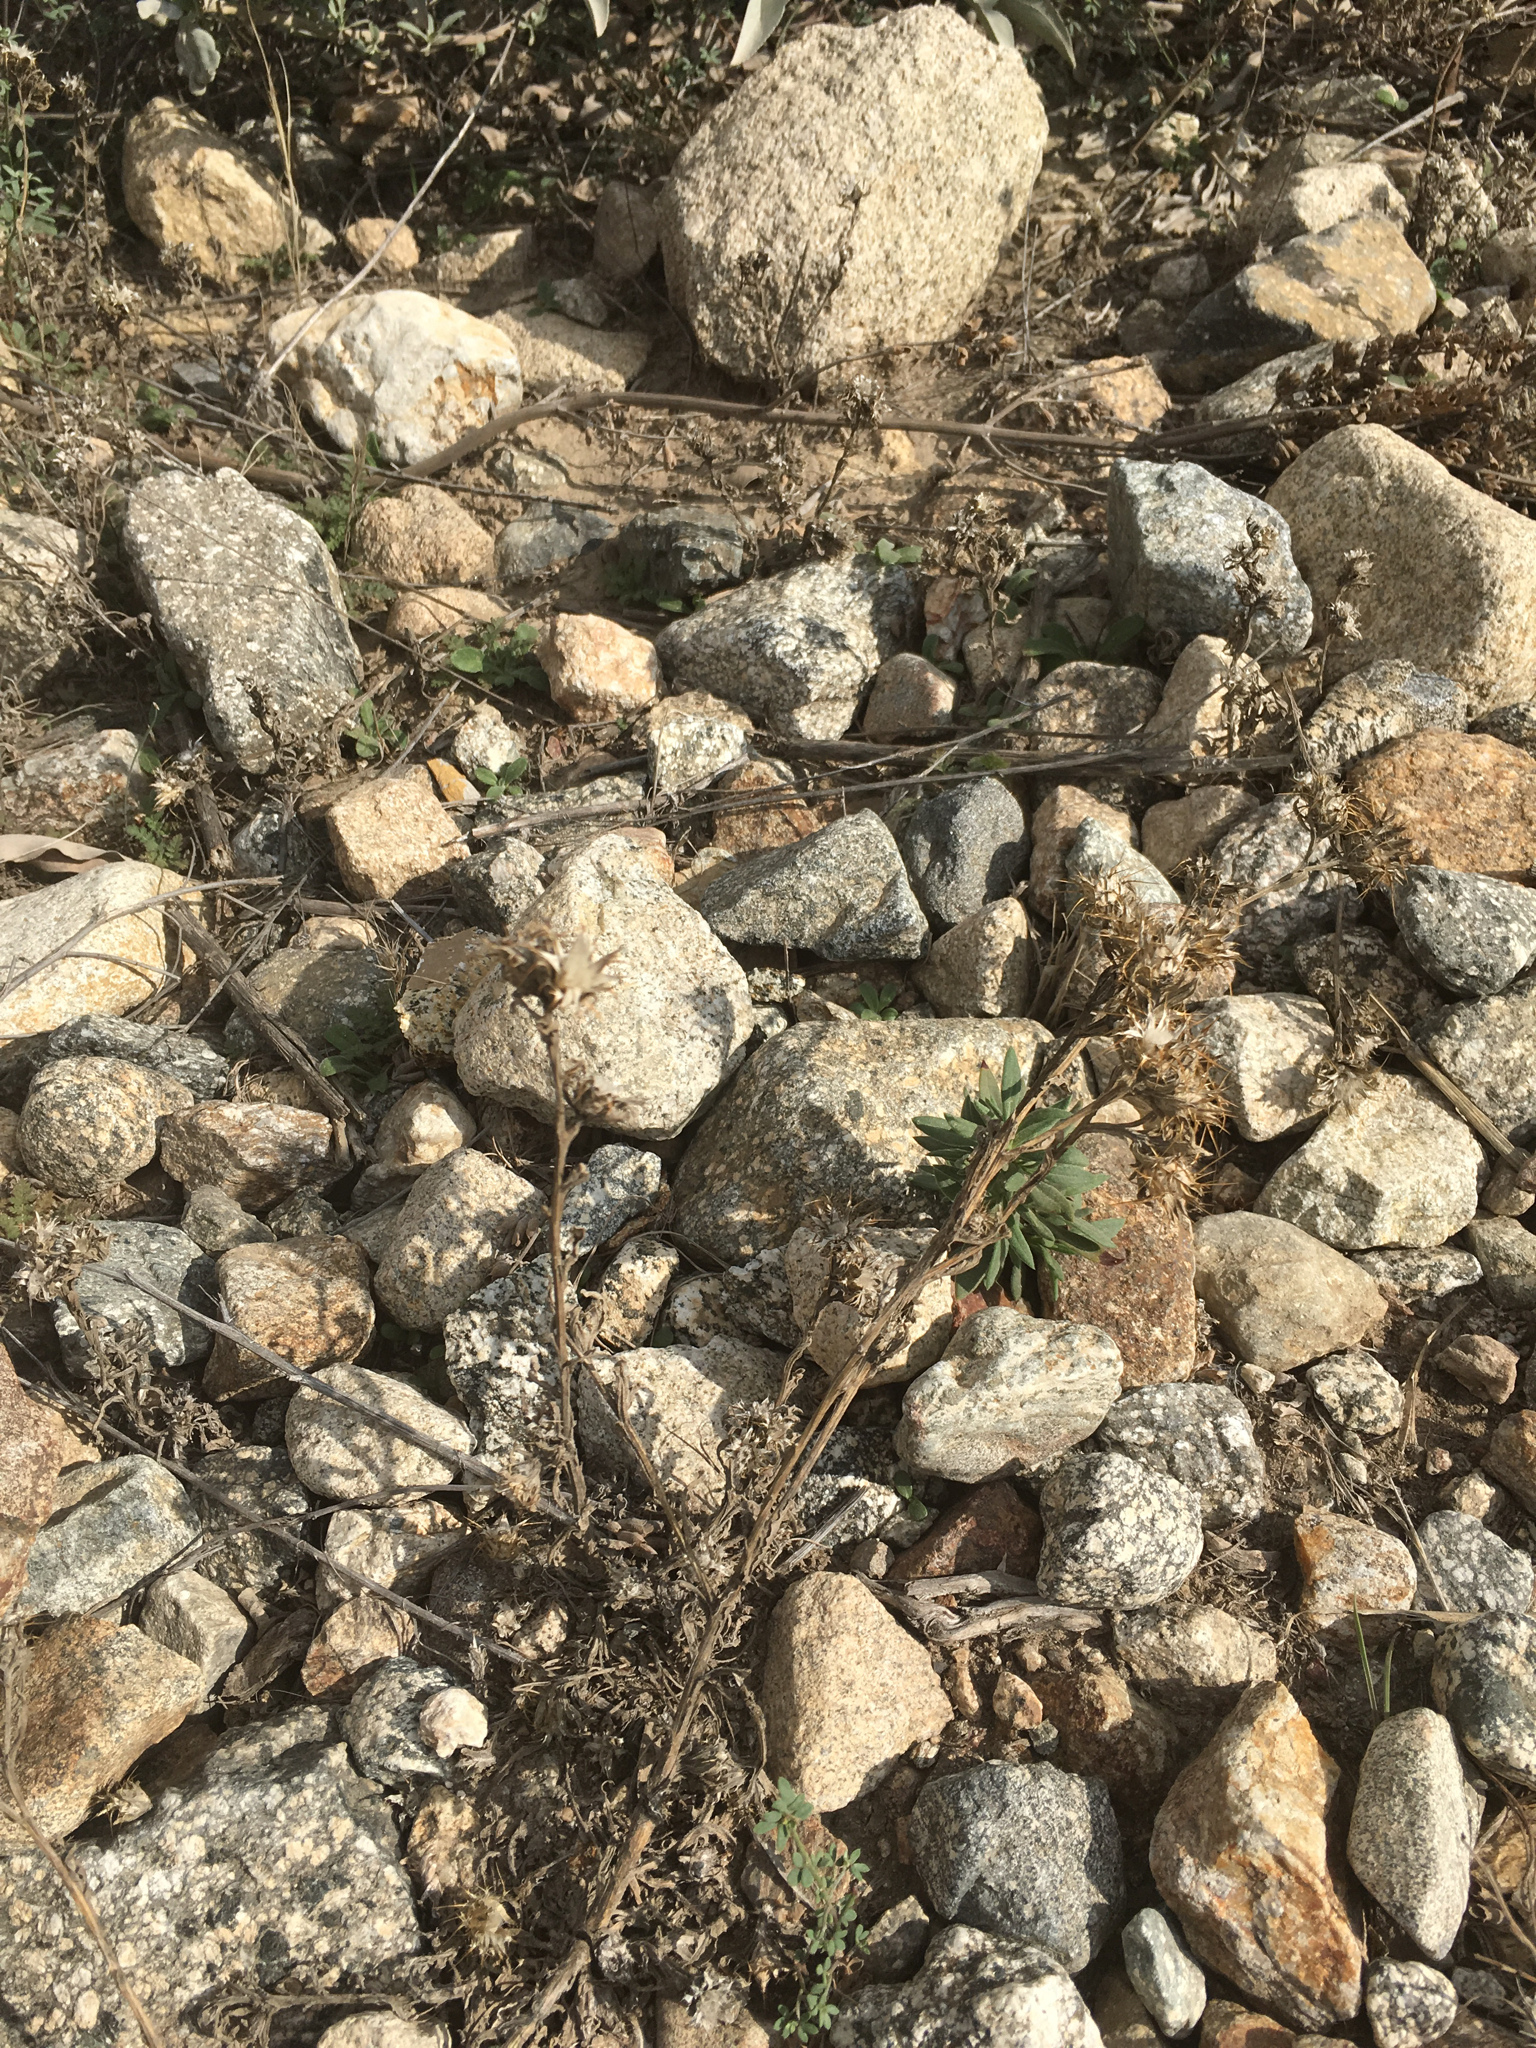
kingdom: Plantae
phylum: Tracheophyta
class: Magnoliopsida
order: Asterales
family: Asteraceae
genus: Centaurea
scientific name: Centaurea melitensis
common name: Maltese star-thistle
